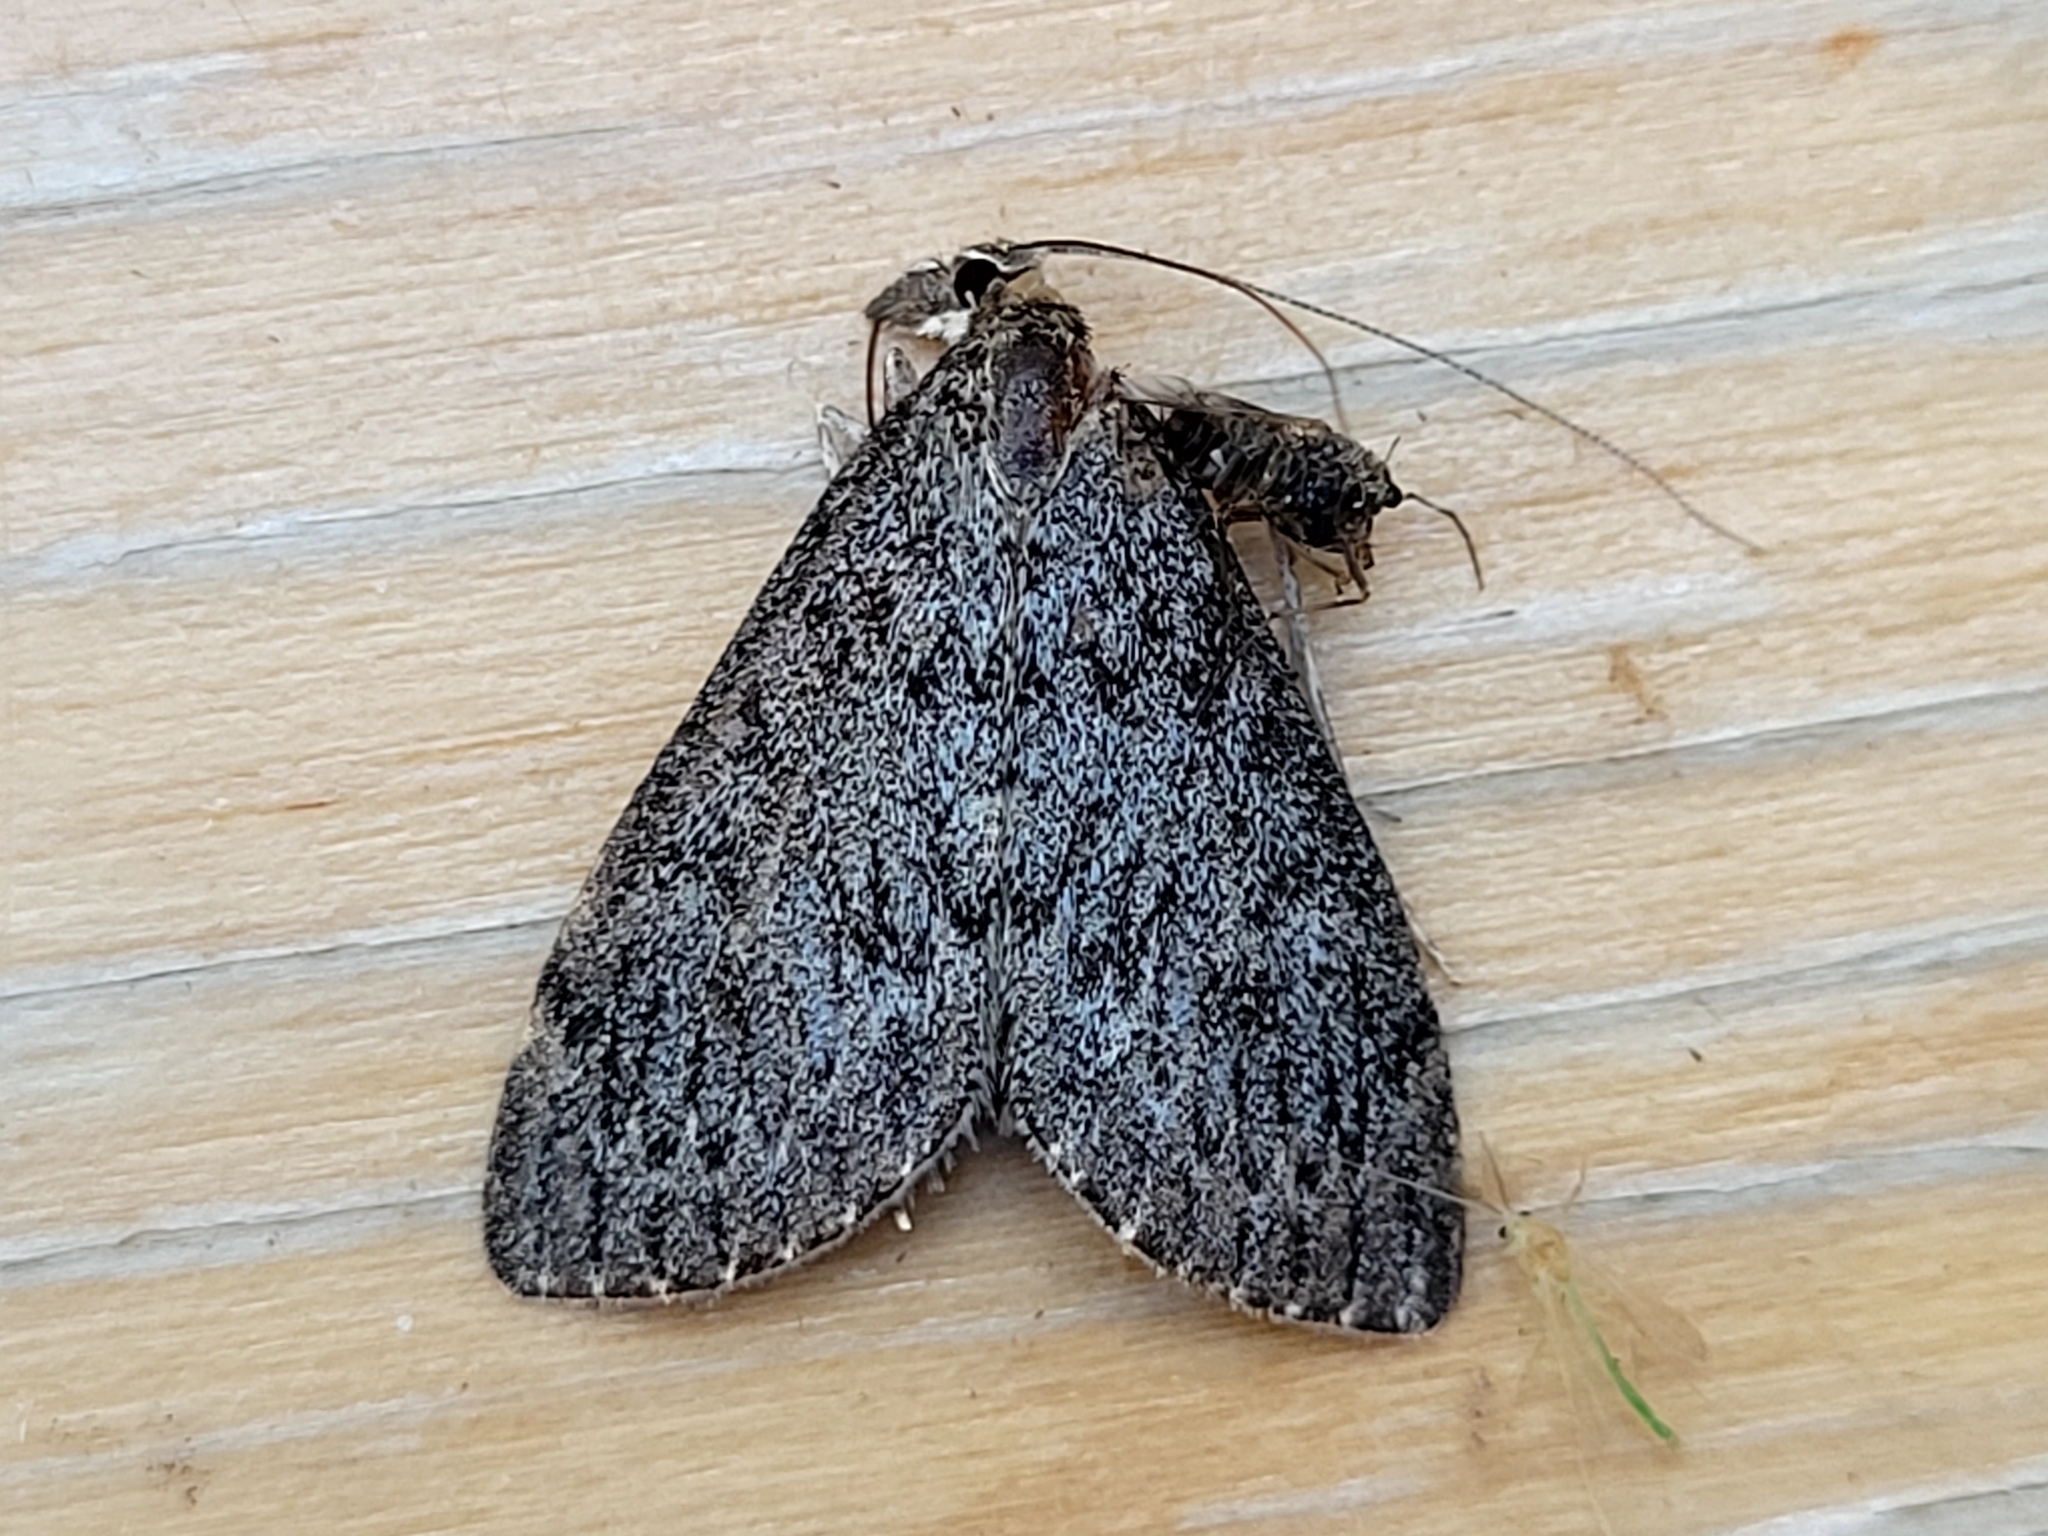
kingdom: Animalia
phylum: Arthropoda
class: Insecta
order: Lepidoptera
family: Crambidae
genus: Saucrobotys
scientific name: Saucrobotys fumoferalis
